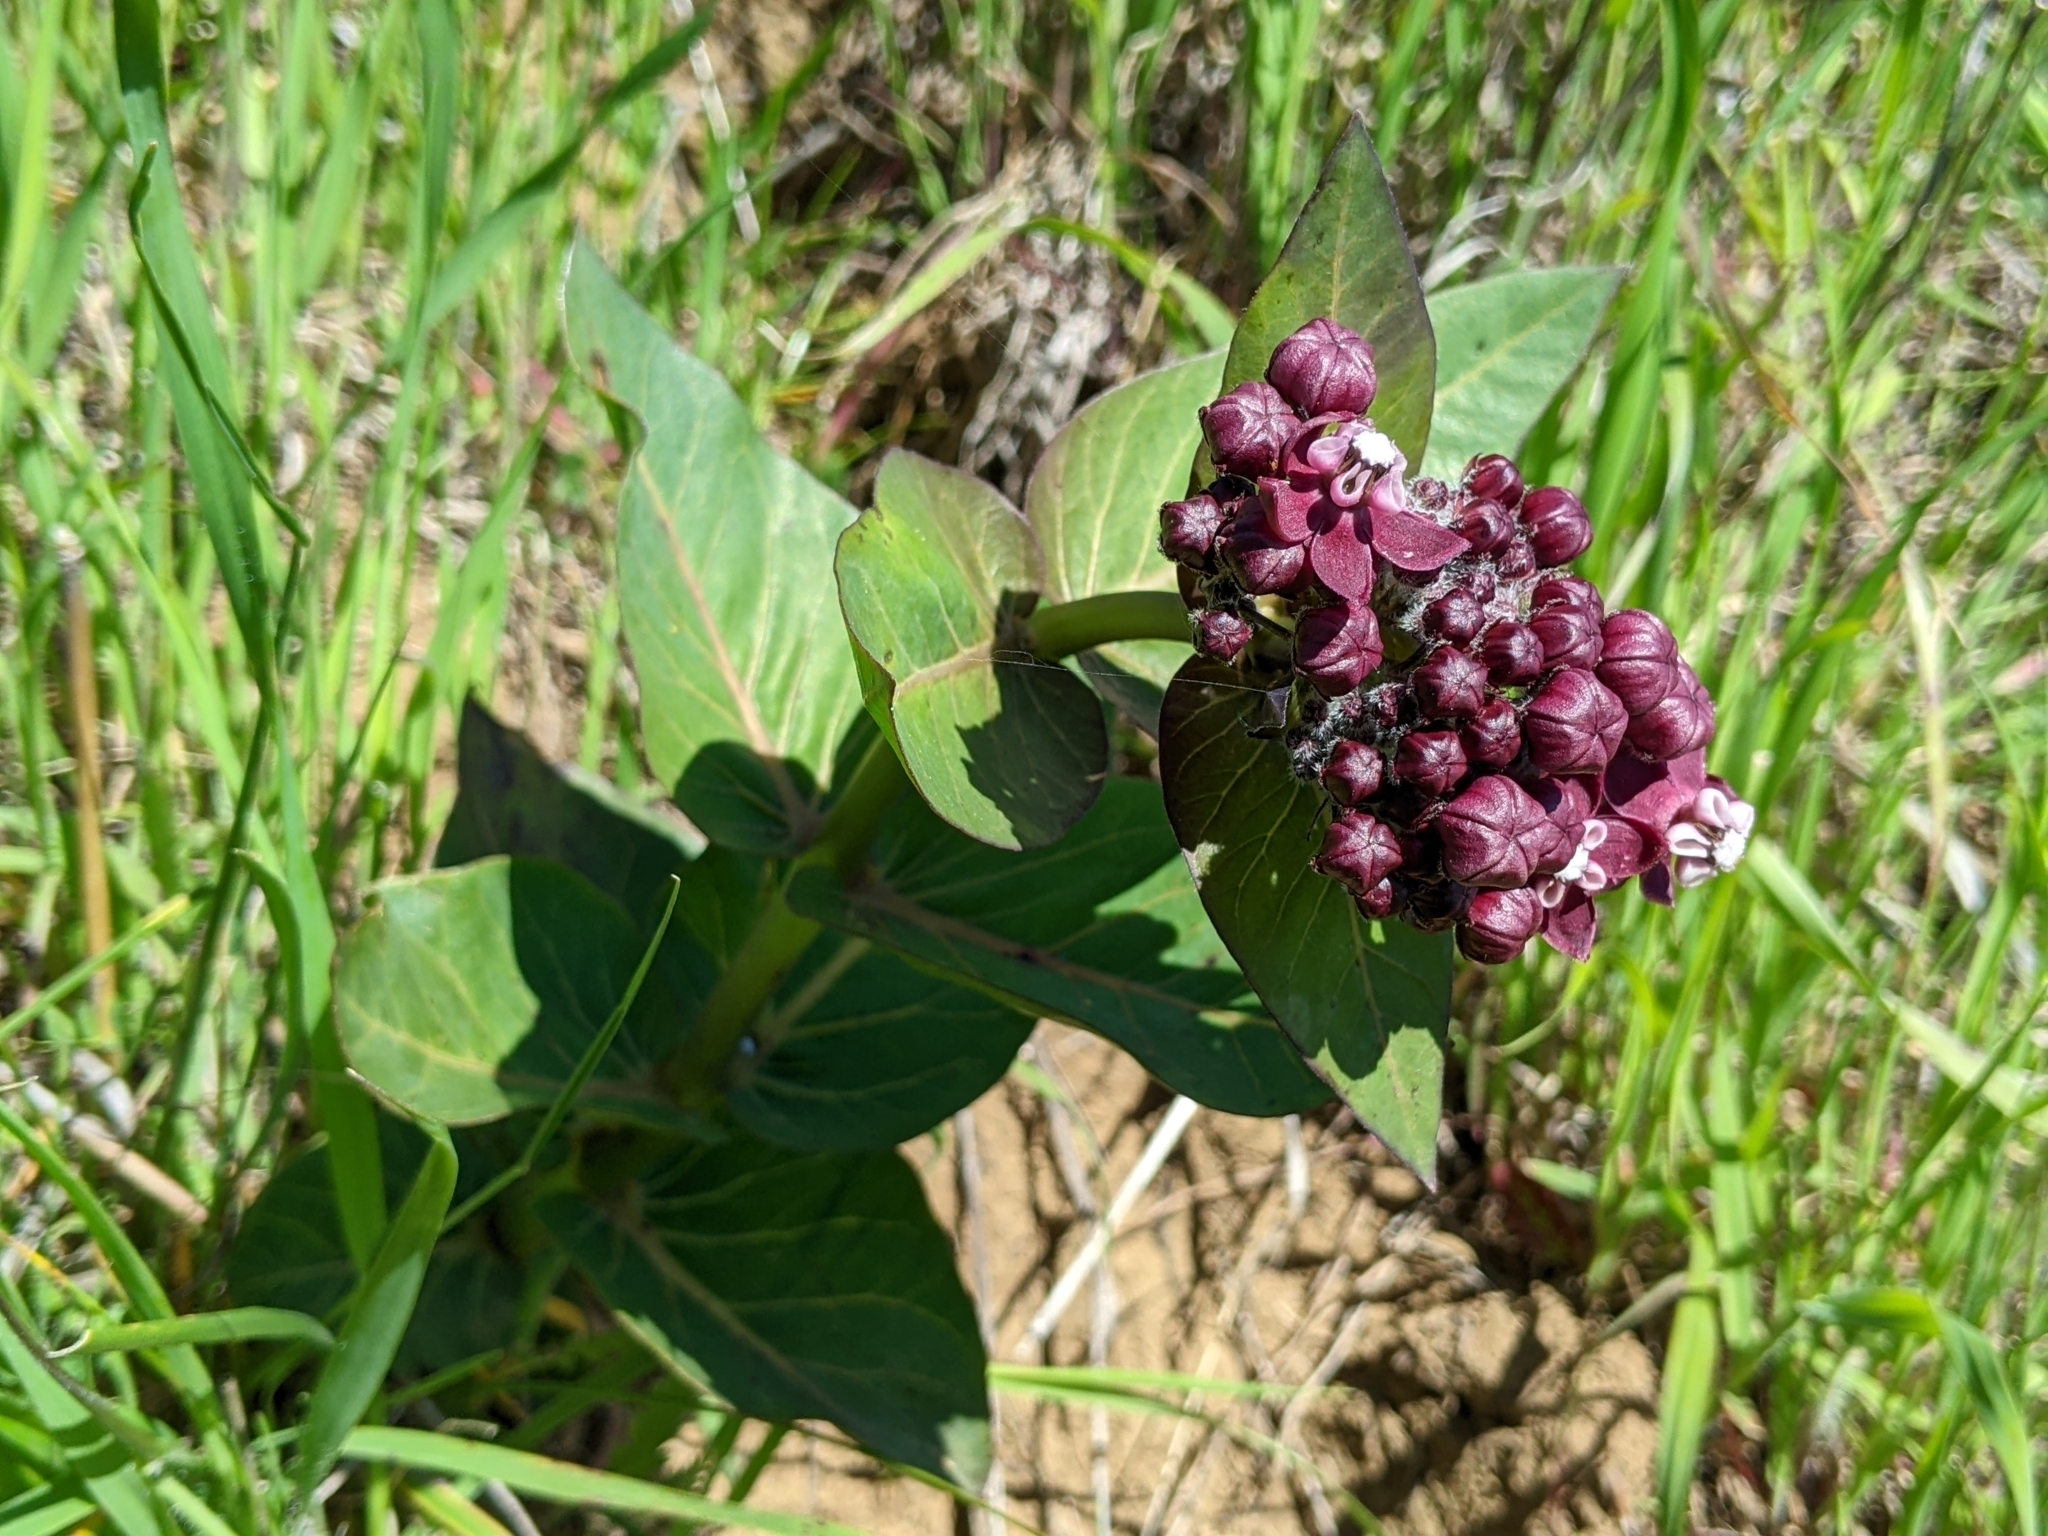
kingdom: Plantae
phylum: Tracheophyta
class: Magnoliopsida
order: Gentianales
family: Apocynaceae
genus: Asclepias
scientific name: Asclepias cordifolia
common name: Purple milkweed
